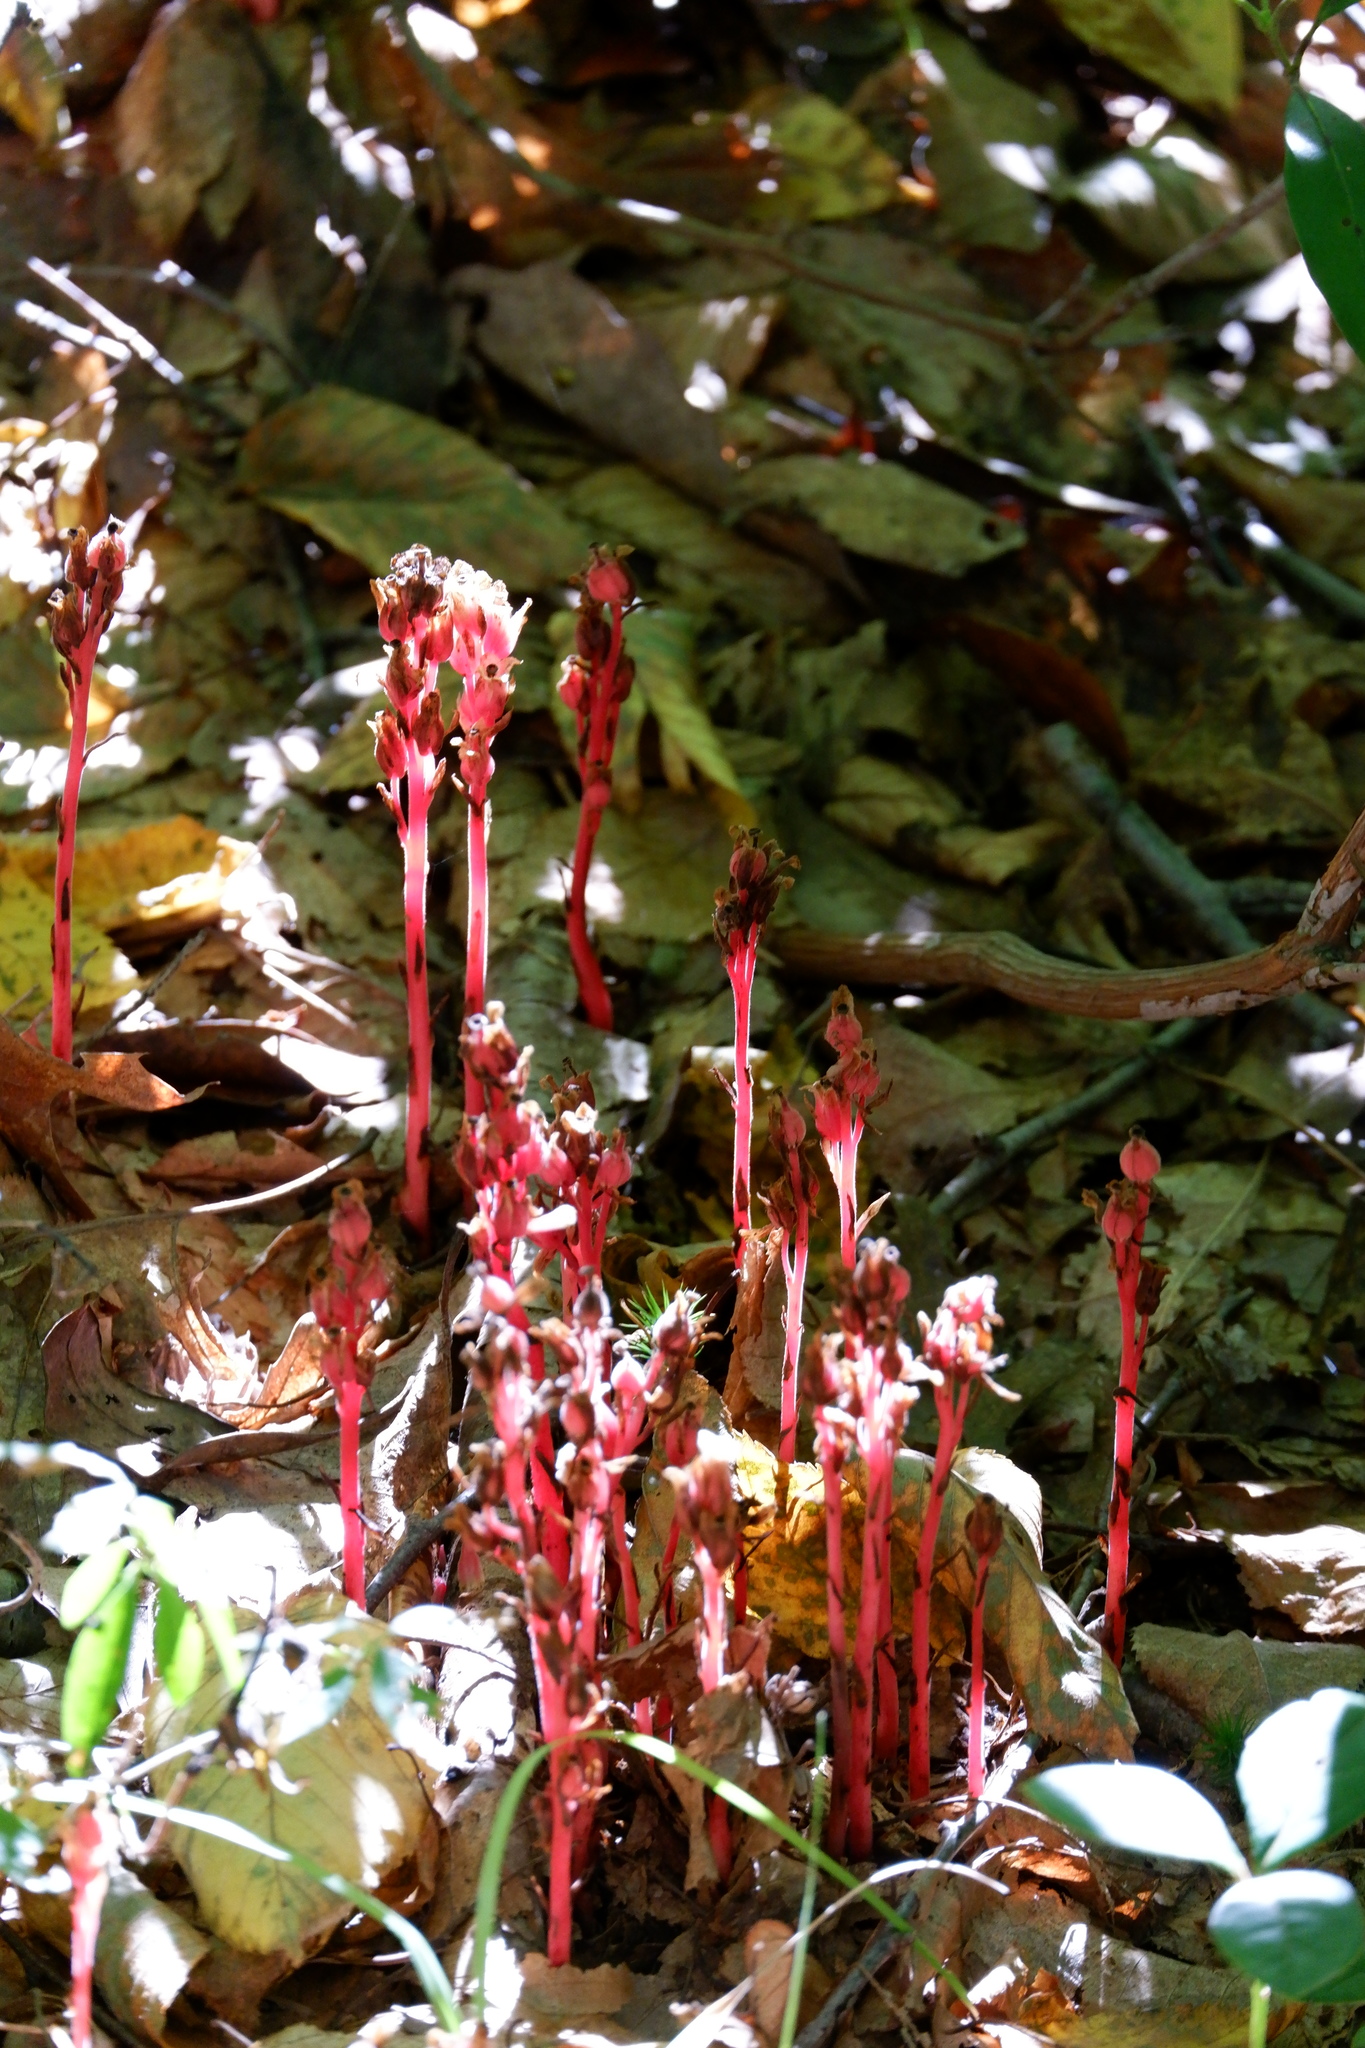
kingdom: Plantae
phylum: Tracheophyta
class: Magnoliopsida
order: Ericales
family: Ericaceae
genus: Hypopitys
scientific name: Hypopitys monotropa
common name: Yellow bird's-nest
